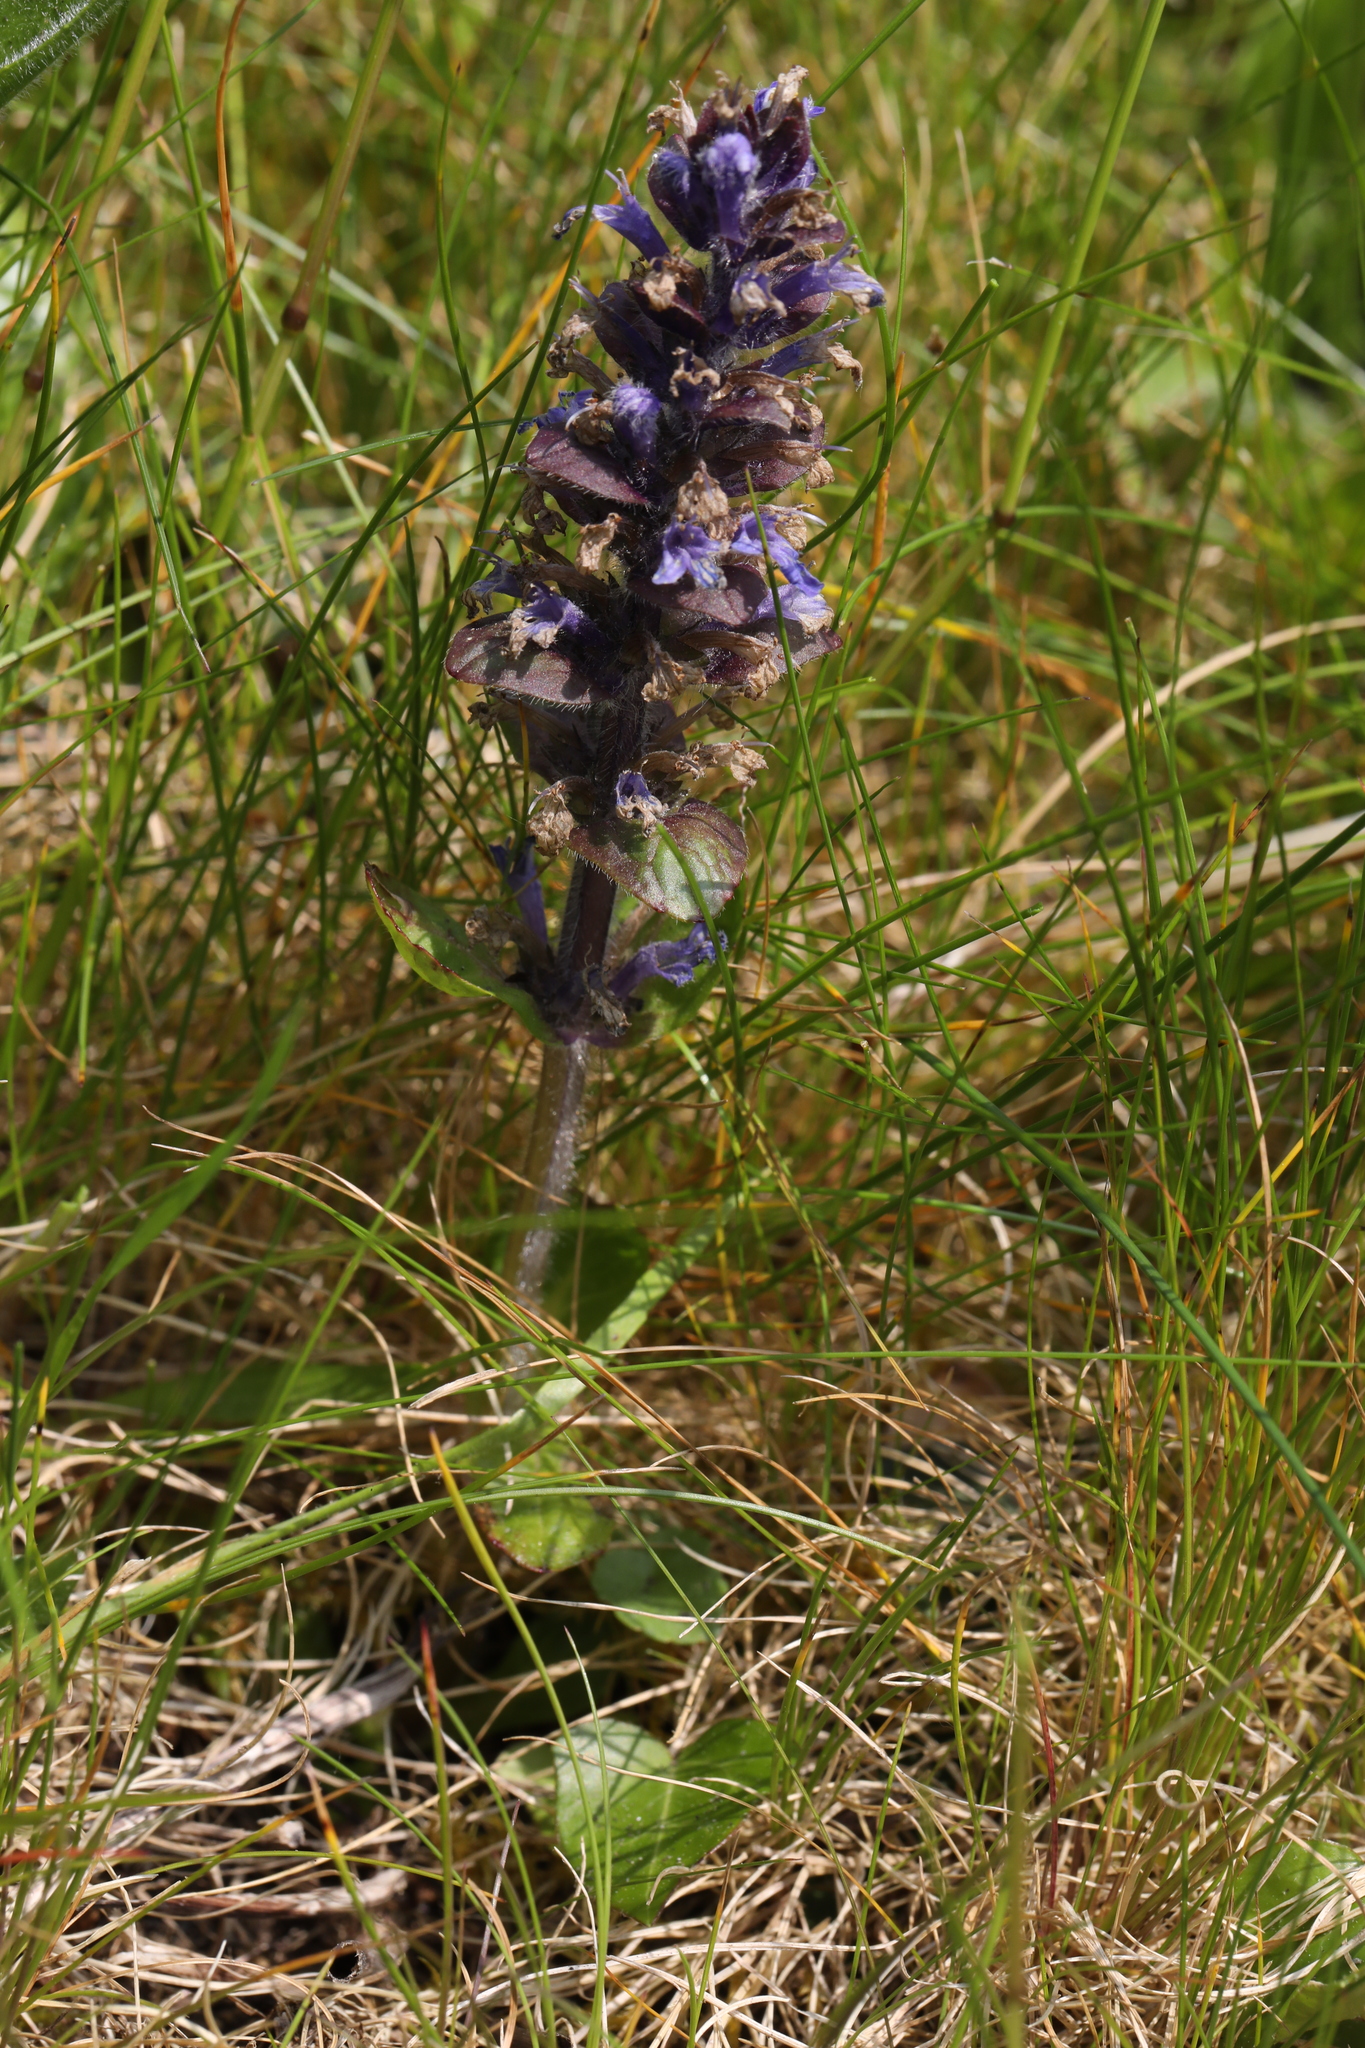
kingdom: Plantae
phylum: Tracheophyta
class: Magnoliopsida
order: Lamiales
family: Lamiaceae
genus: Ajuga
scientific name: Ajuga reptans
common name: Bugle
